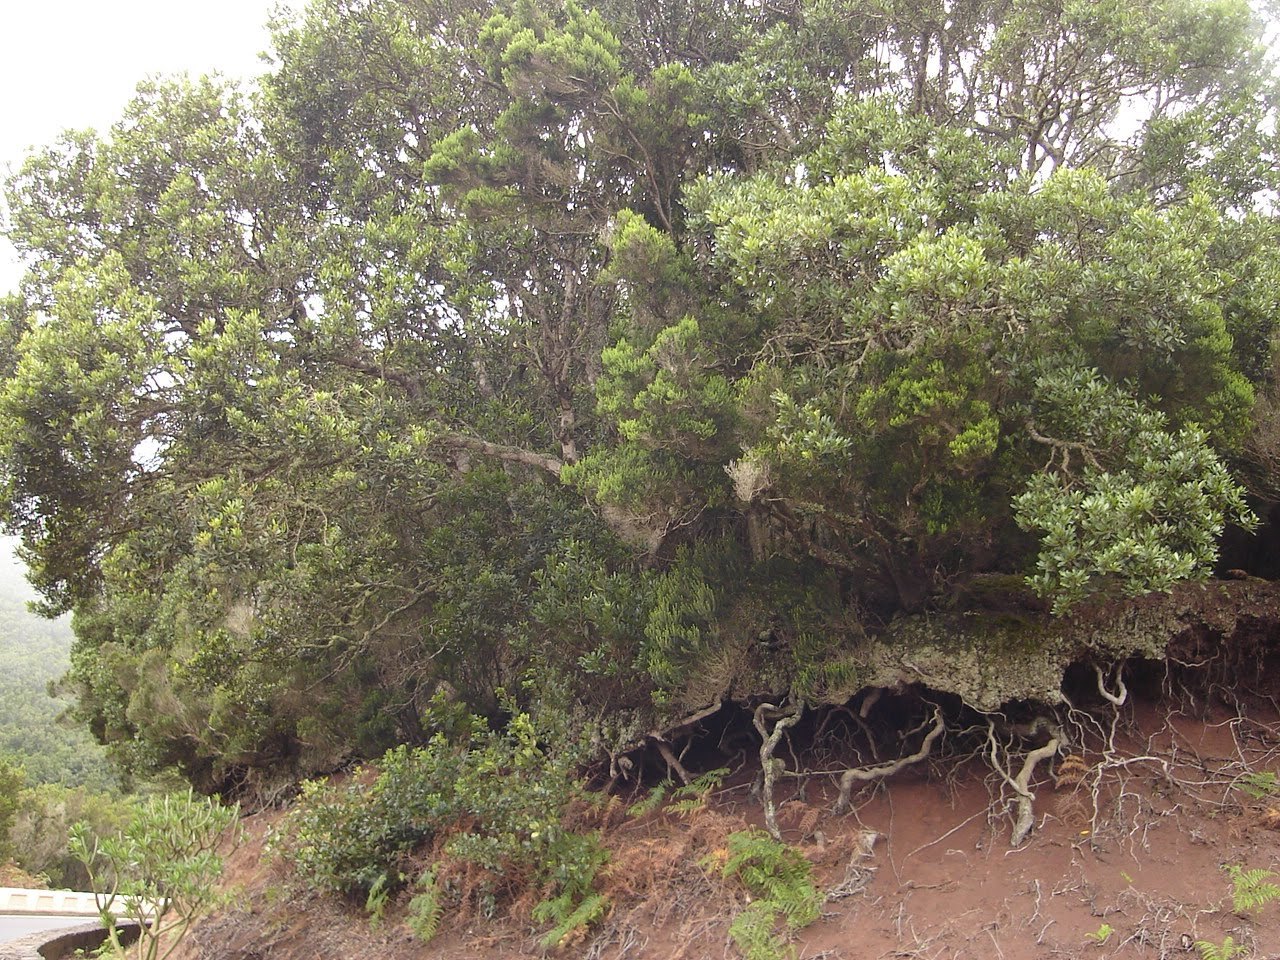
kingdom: Plantae
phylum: Tracheophyta
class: Magnoliopsida
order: Fagales
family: Myricaceae
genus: Morella
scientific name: Morella faya
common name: Firetree
